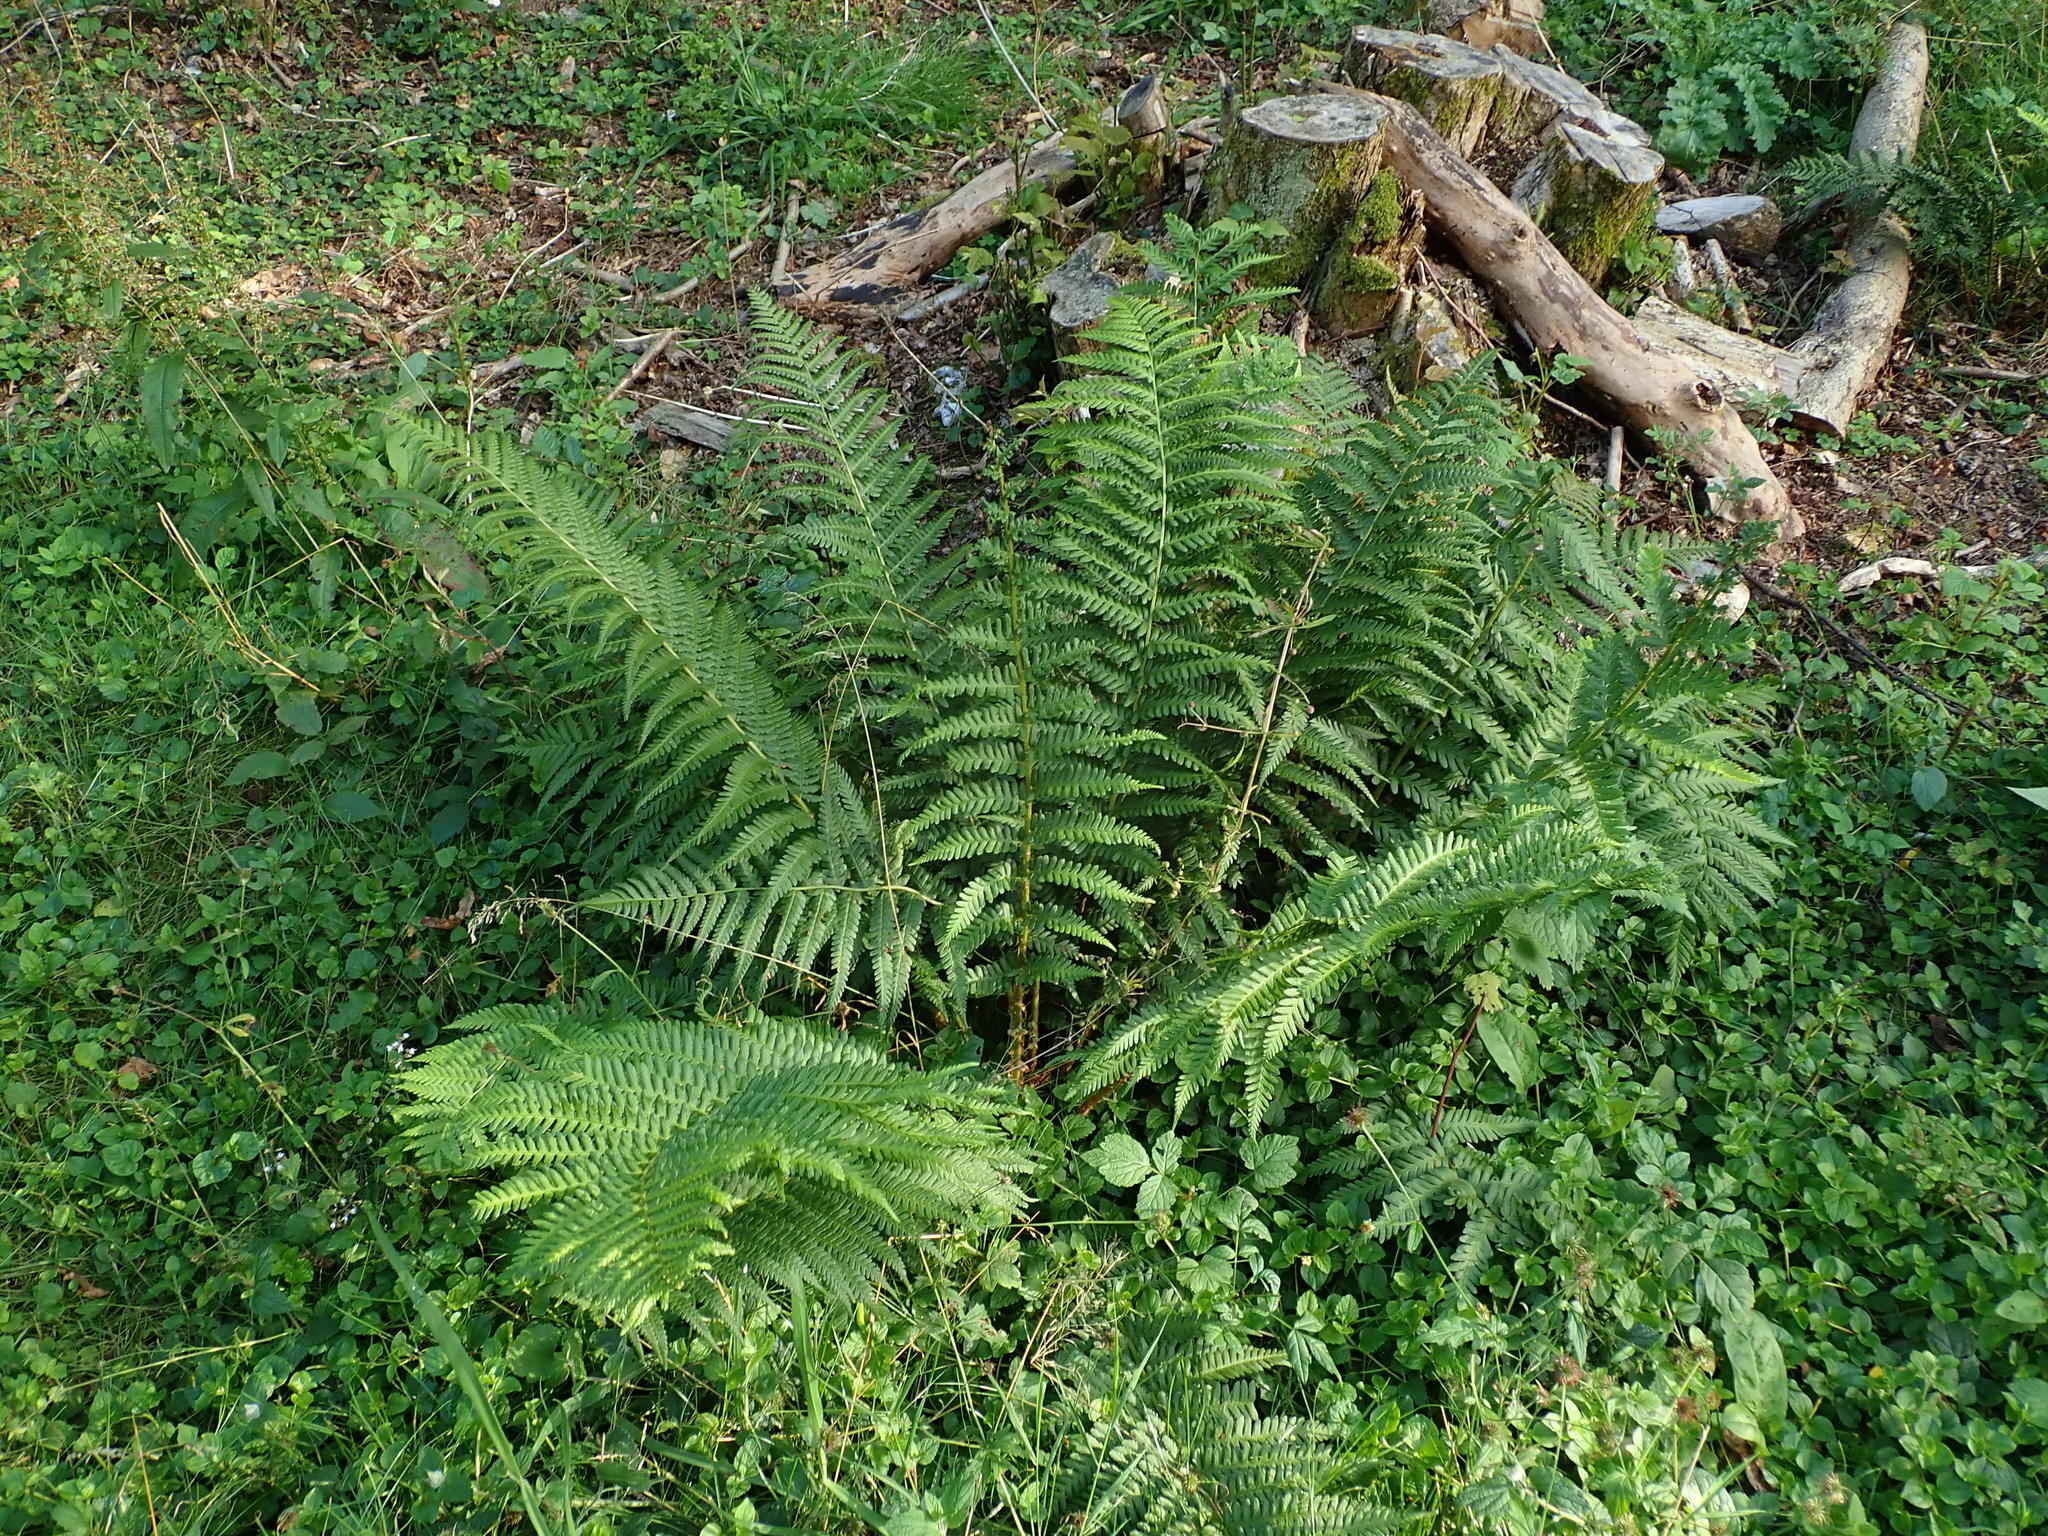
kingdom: Plantae
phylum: Tracheophyta
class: Polypodiopsida
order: Polypodiales
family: Dryopteridaceae
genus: Dryopteris
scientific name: Dryopteris filix-mas
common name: Male fern
